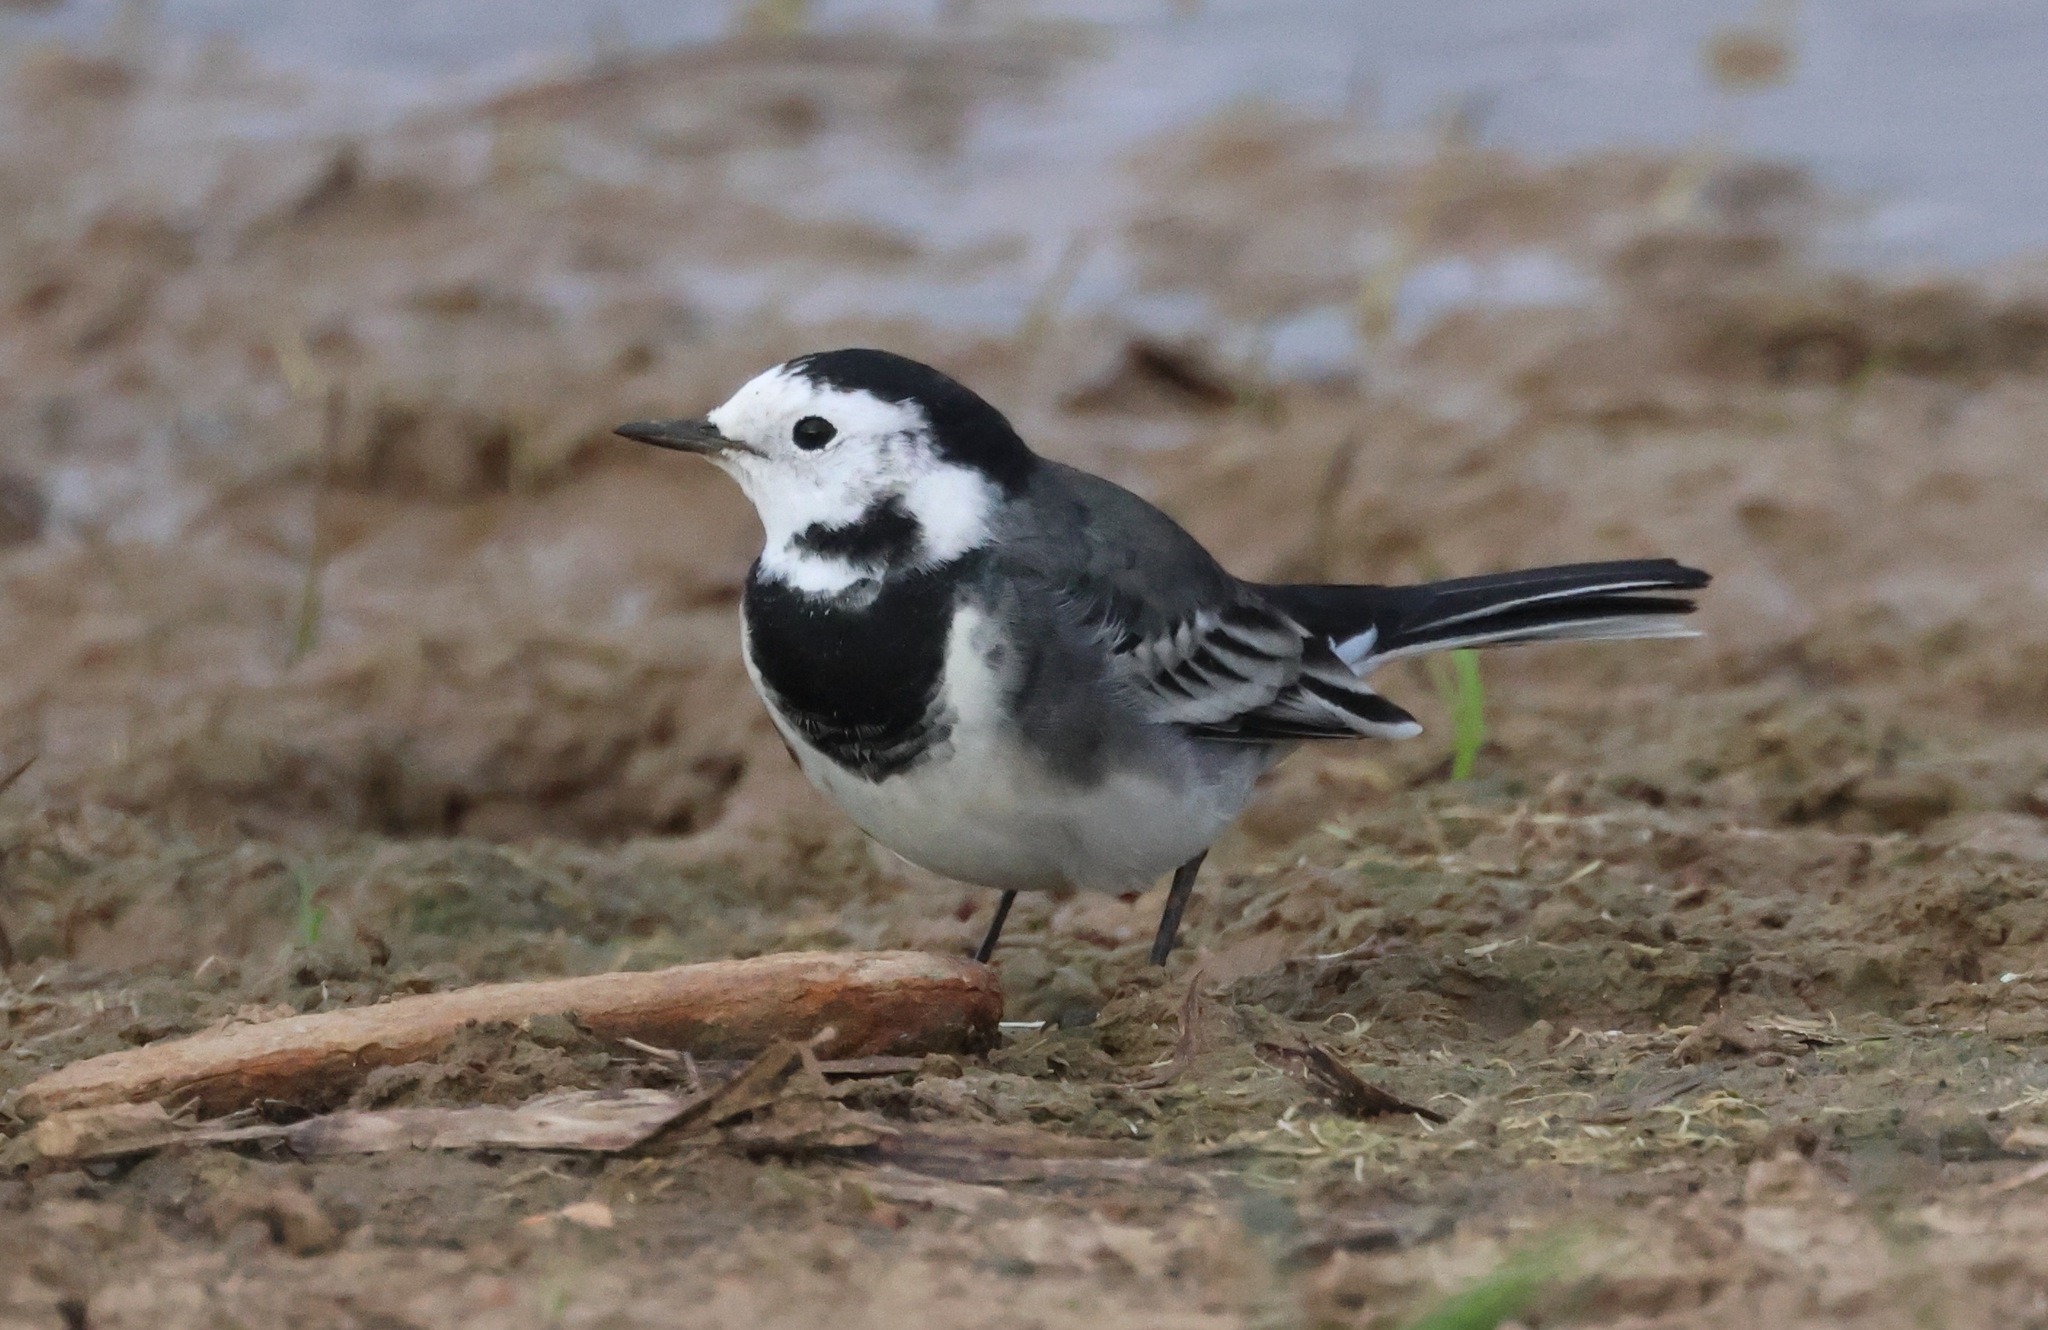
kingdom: Animalia
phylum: Chordata
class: Aves
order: Passeriformes
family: Motacillidae
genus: Motacilla
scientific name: Motacilla alba
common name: White wagtail
